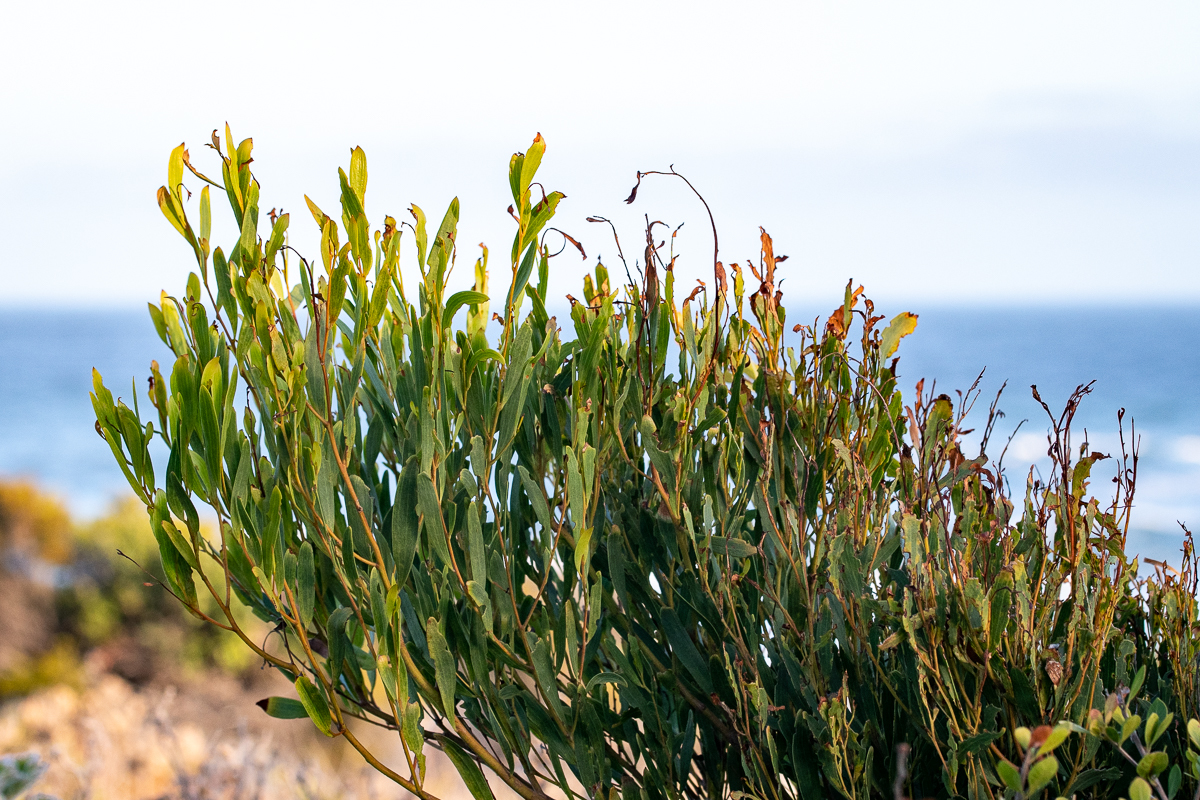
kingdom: Plantae
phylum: Tracheophyta
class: Magnoliopsida
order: Fabales
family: Fabaceae
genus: Acacia
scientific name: Acacia longifolia
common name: Sydney golden wattle
